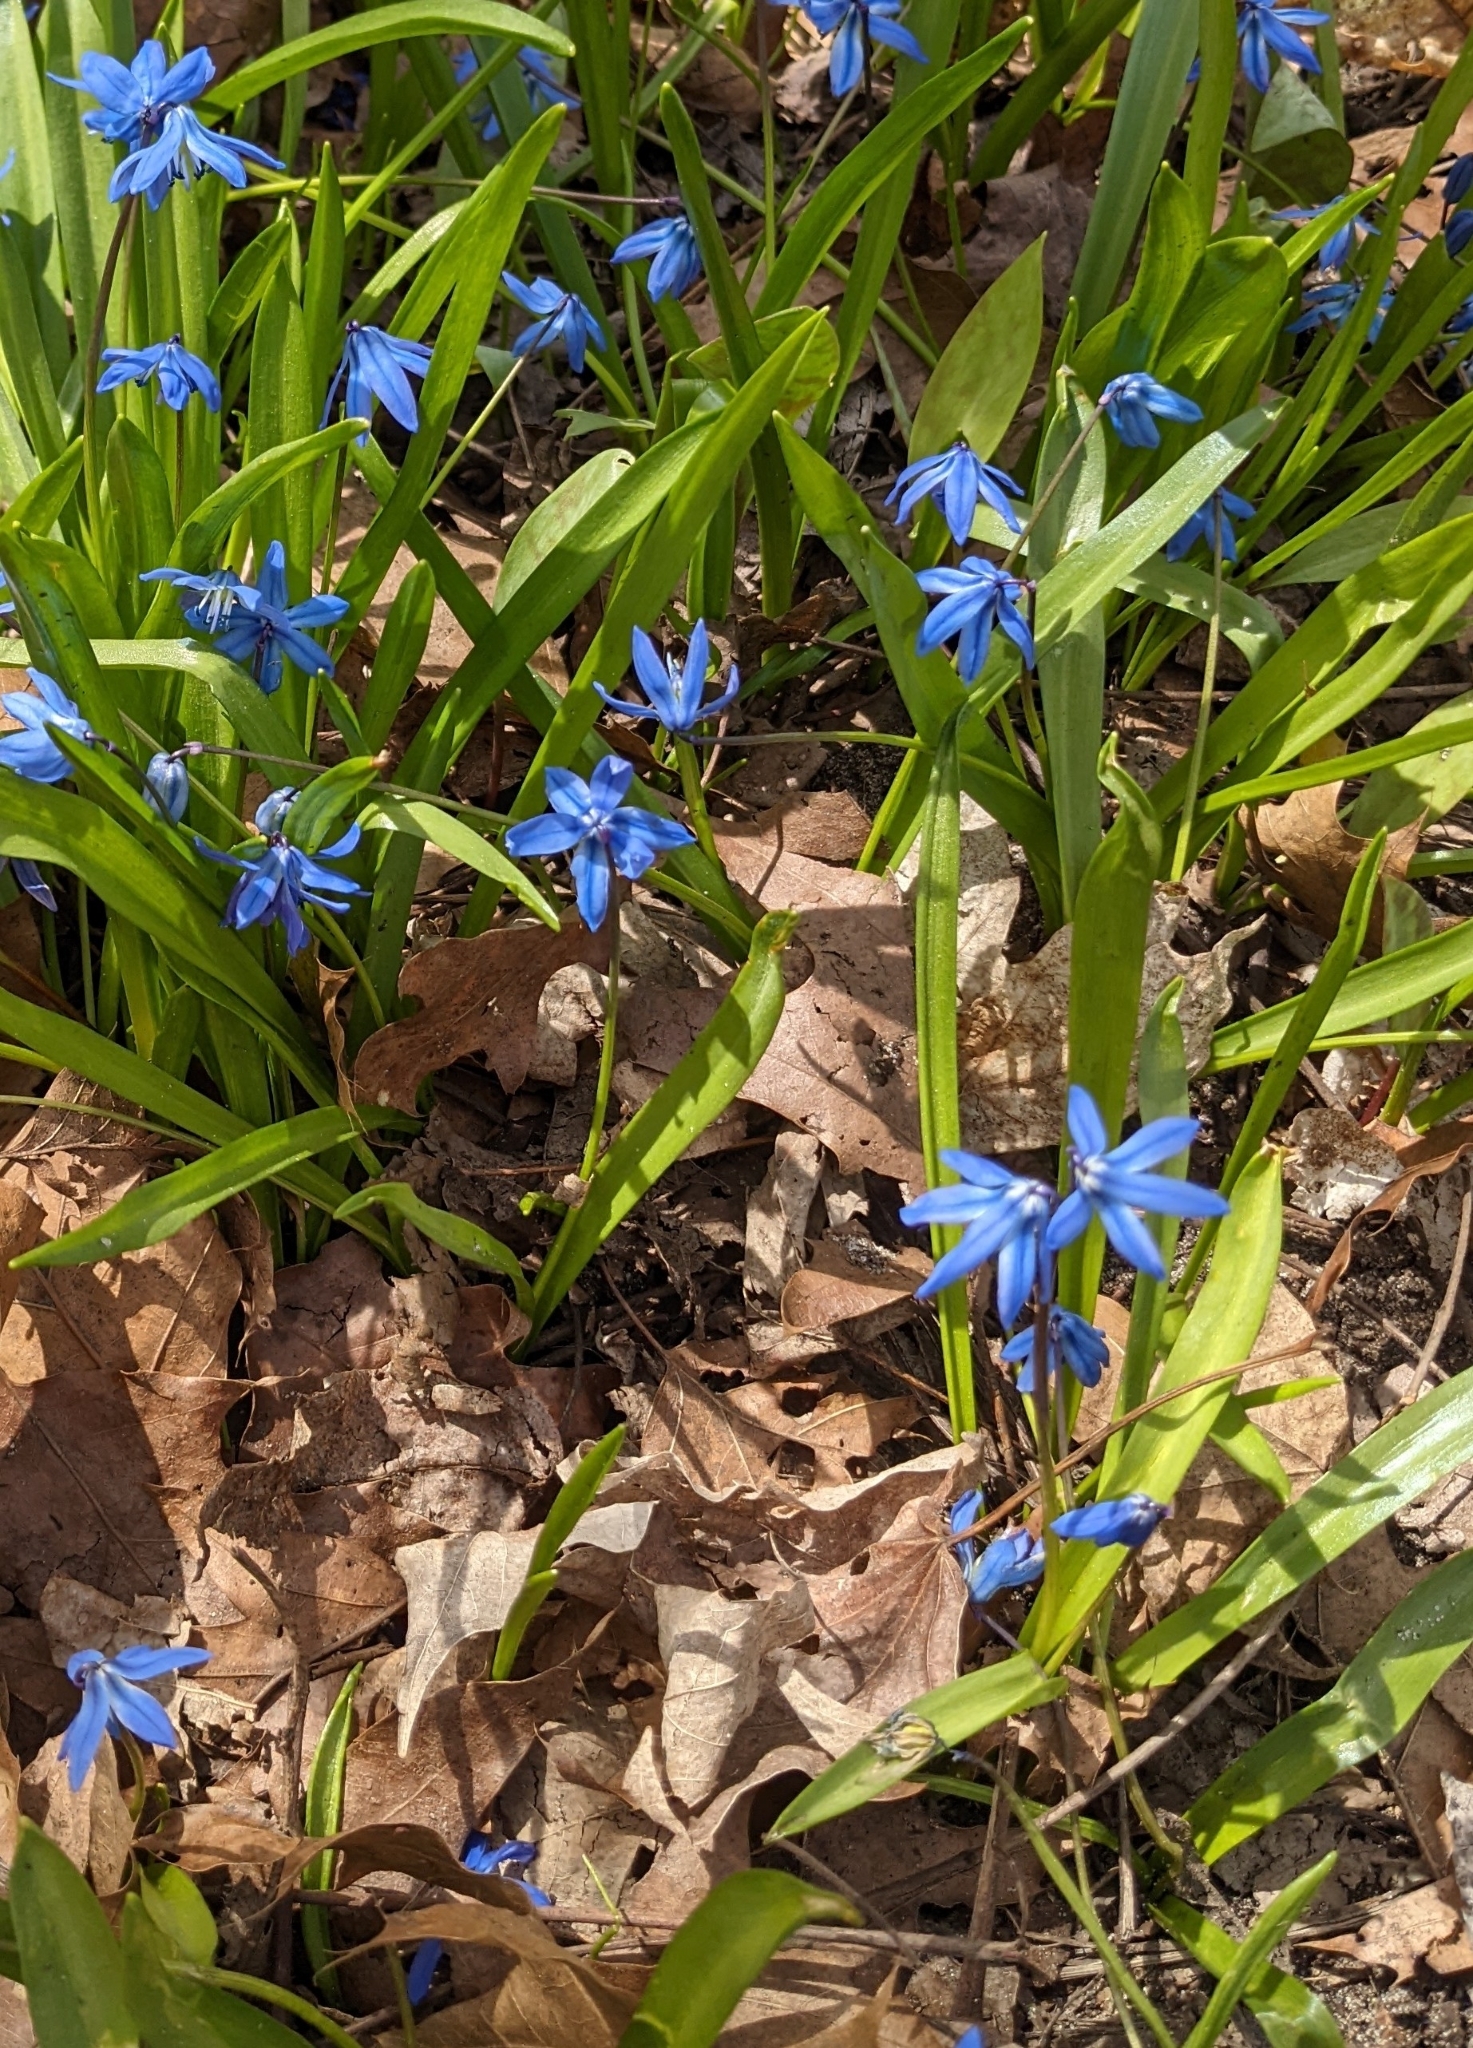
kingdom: Plantae
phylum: Tracheophyta
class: Liliopsida
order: Asparagales
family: Asparagaceae
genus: Scilla
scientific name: Scilla siberica
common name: Siberian squill
